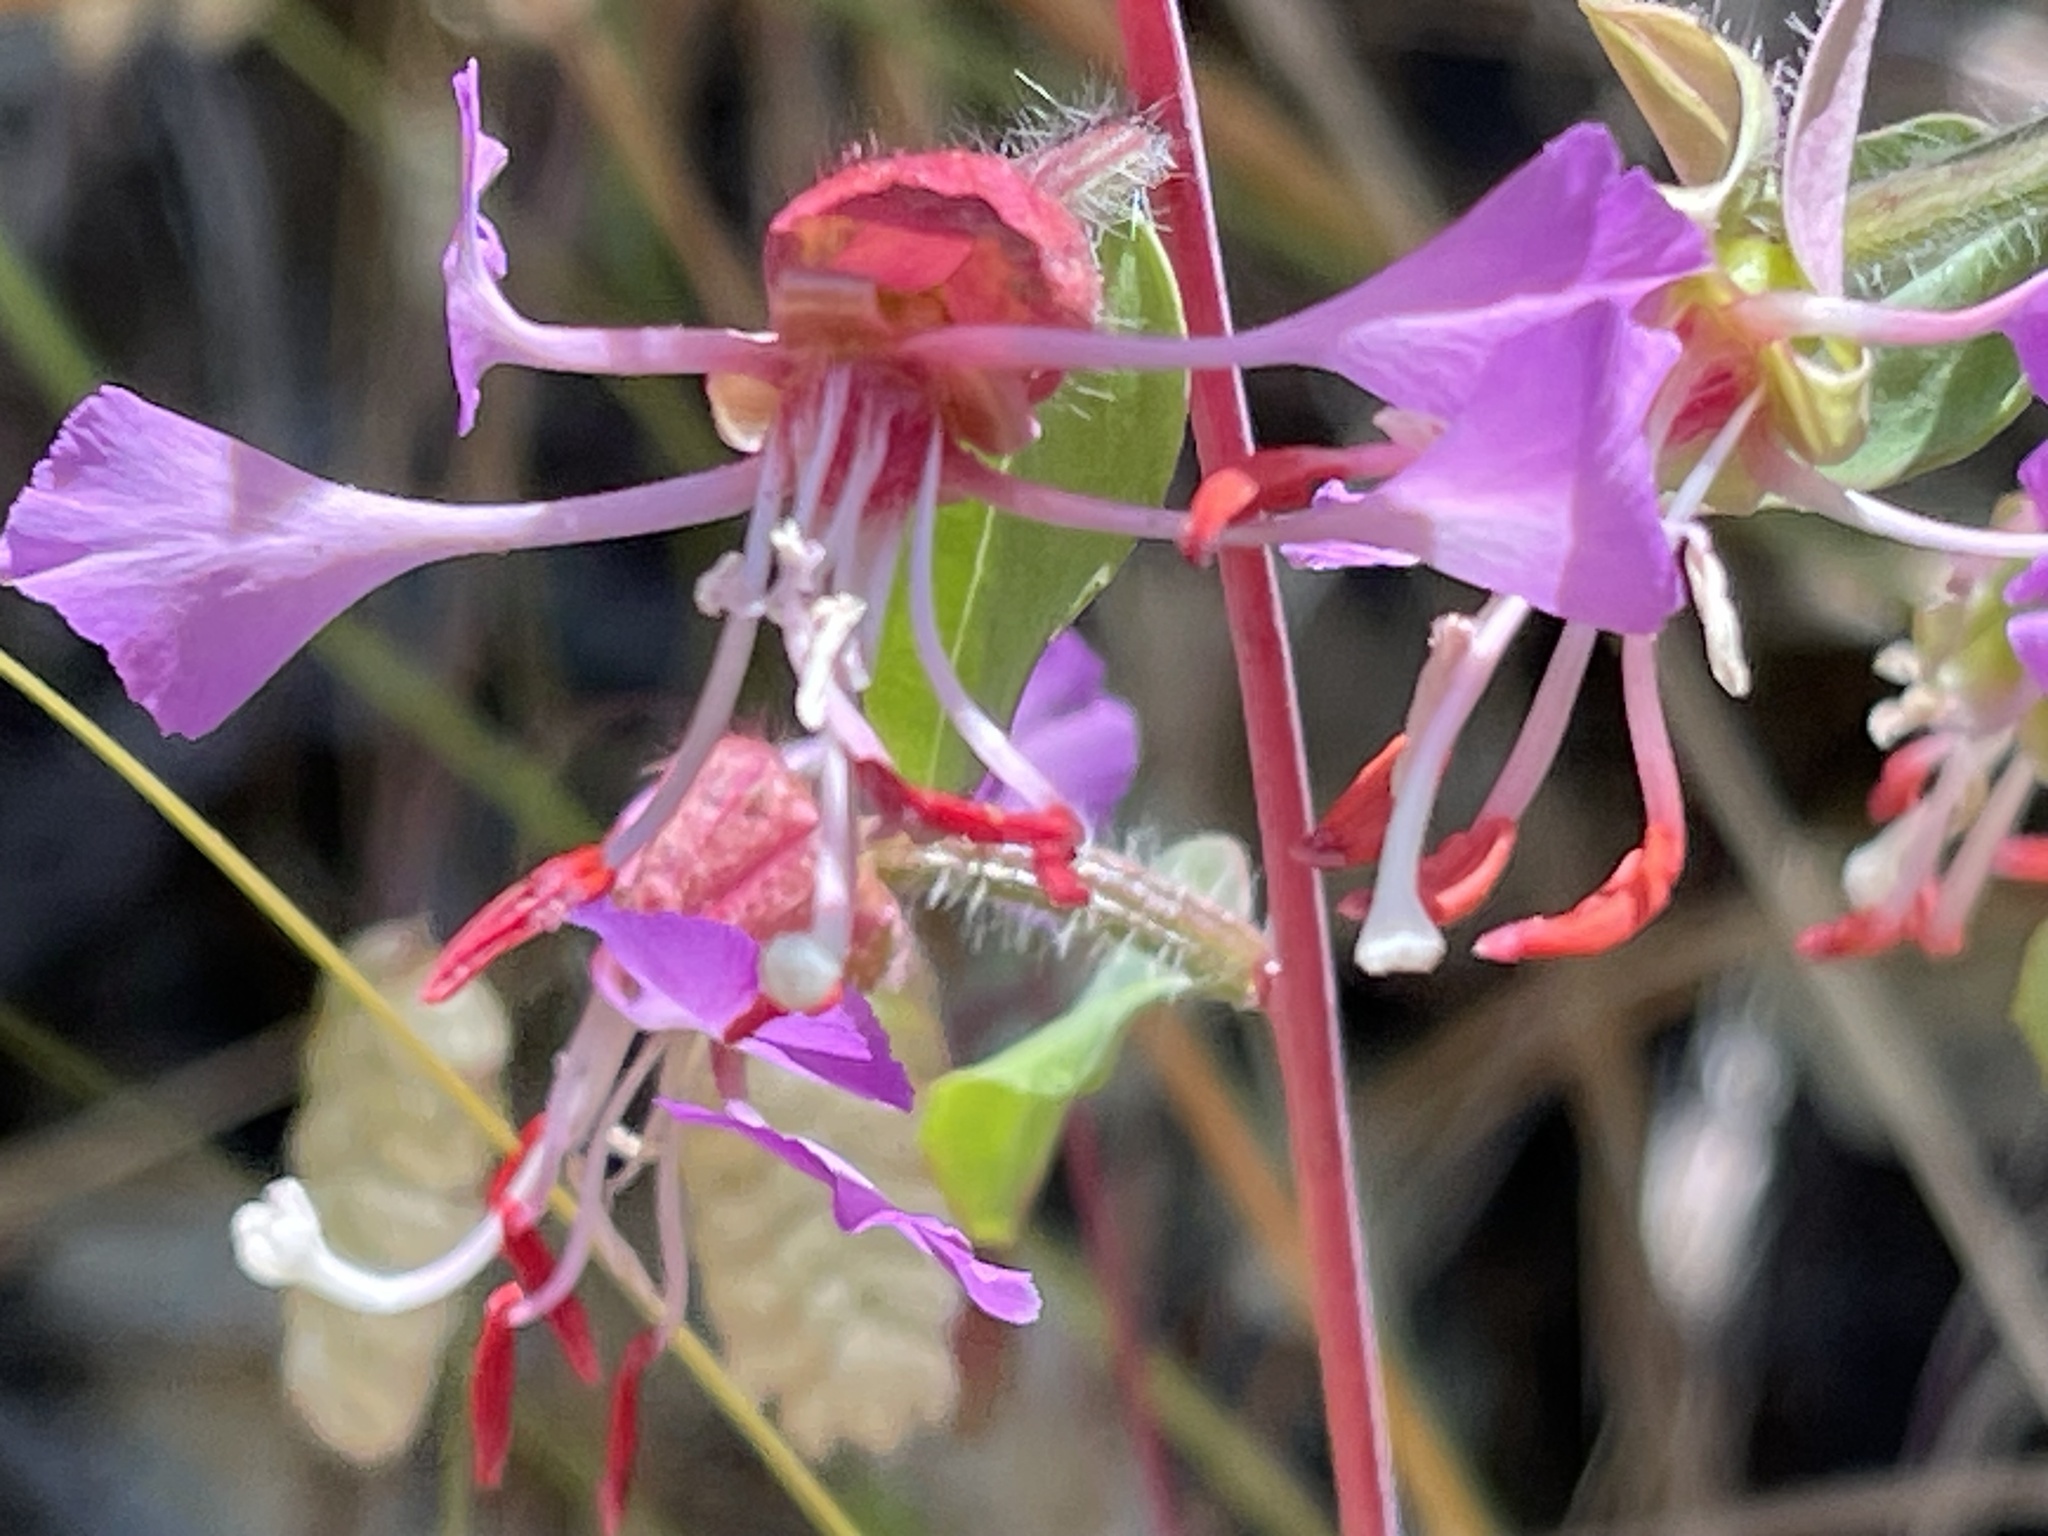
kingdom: Plantae
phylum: Tracheophyta
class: Magnoliopsida
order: Myrtales
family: Onagraceae
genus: Clarkia
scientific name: Clarkia unguiculata
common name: Clarkia
